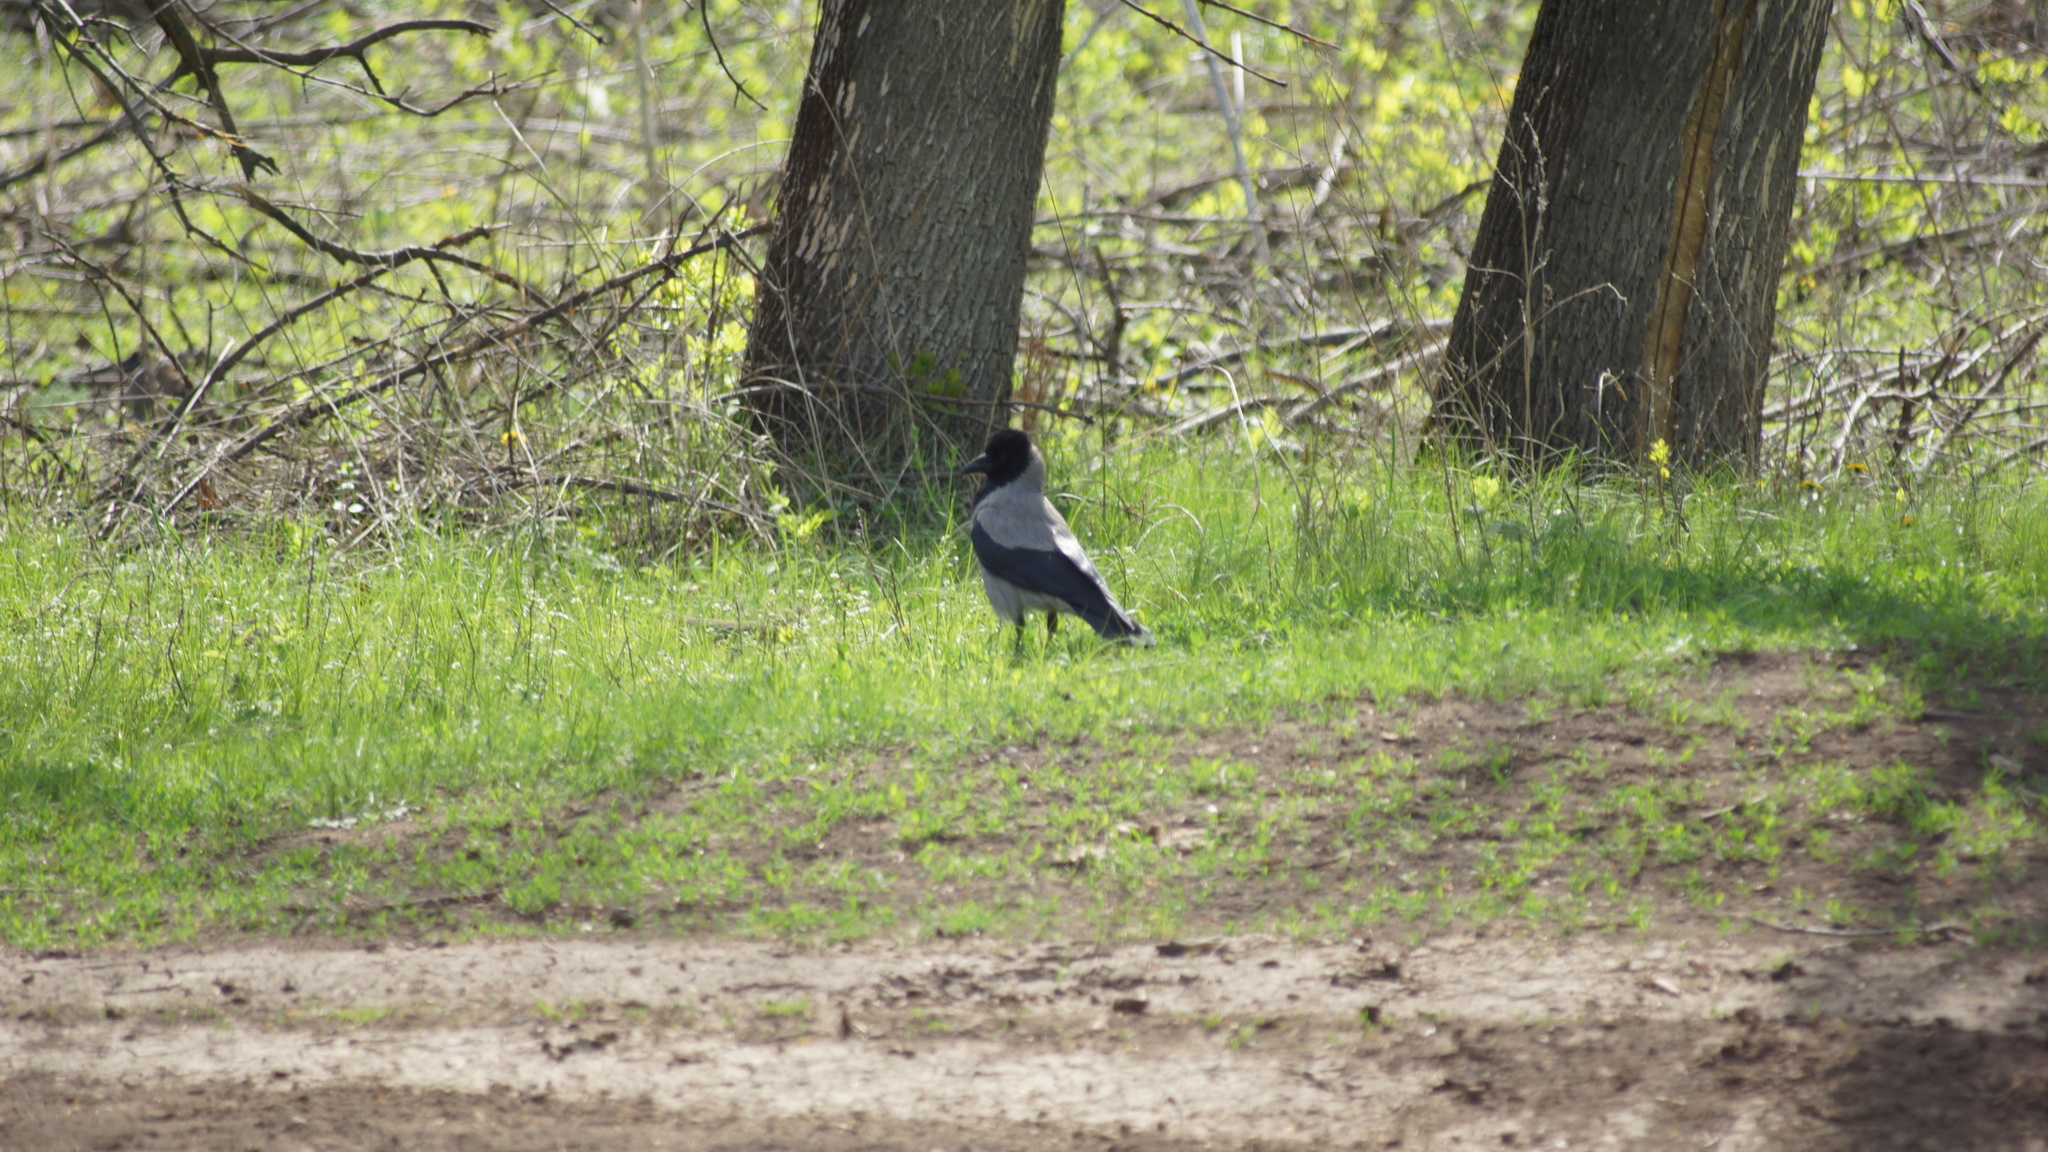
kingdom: Animalia
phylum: Chordata
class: Aves
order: Passeriformes
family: Corvidae
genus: Corvus
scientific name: Corvus cornix
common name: Hooded crow
